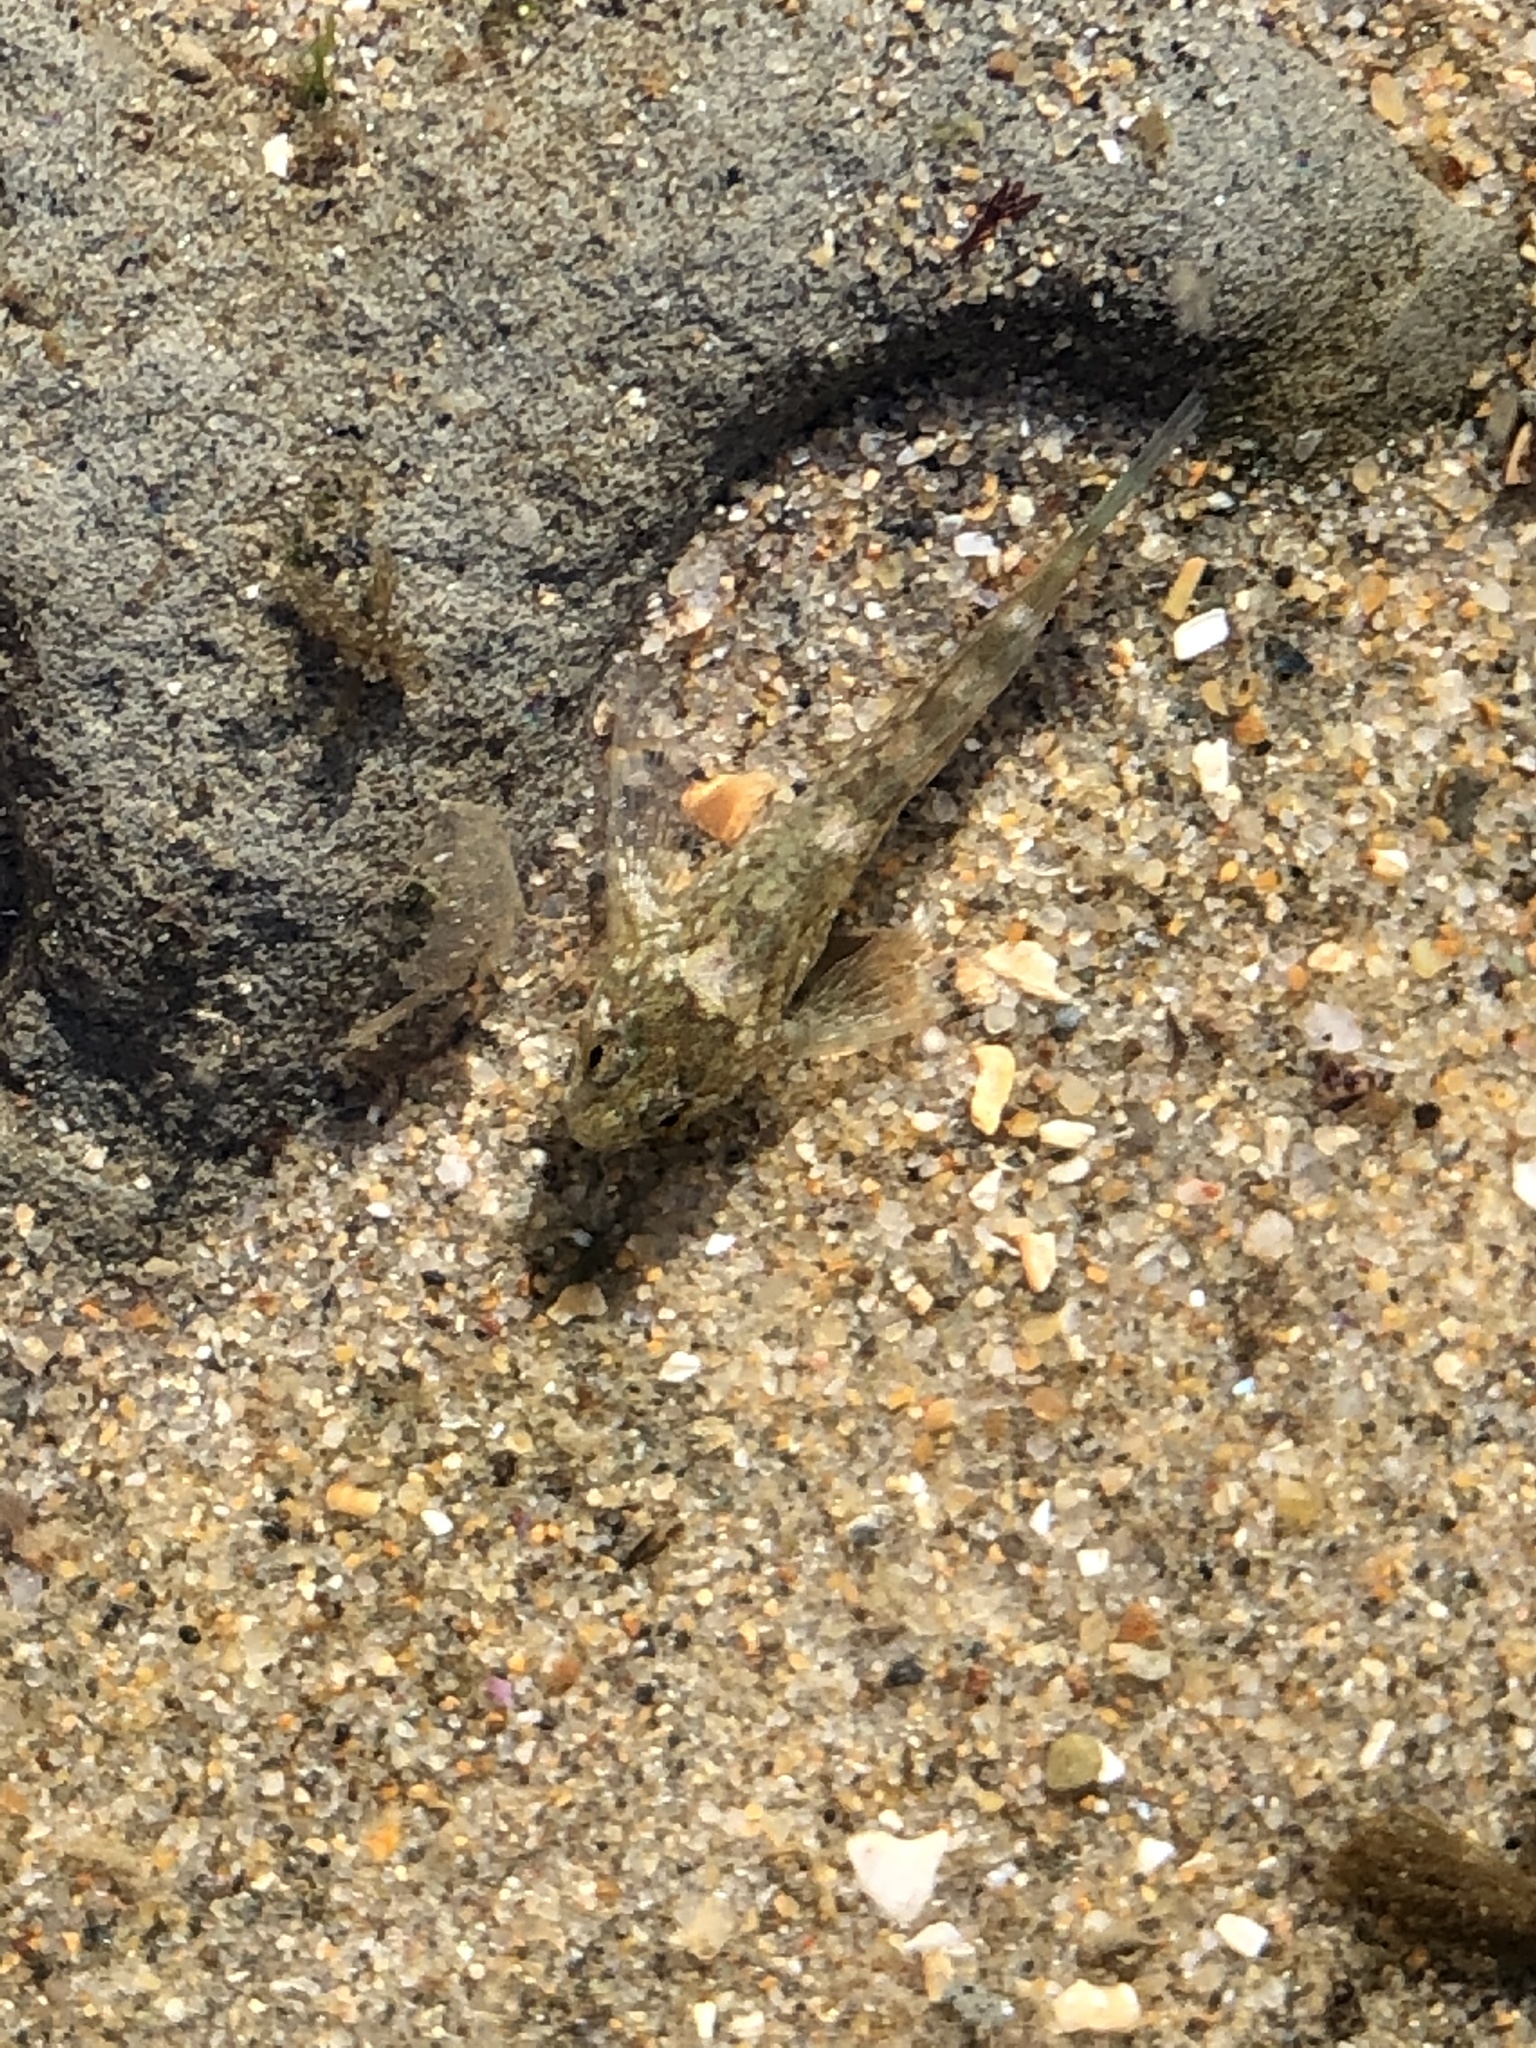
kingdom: Animalia
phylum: Chordata
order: Scorpaeniformes
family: Cottidae
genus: Clinocottus
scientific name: Clinocottus analis
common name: Woolly sculpin
